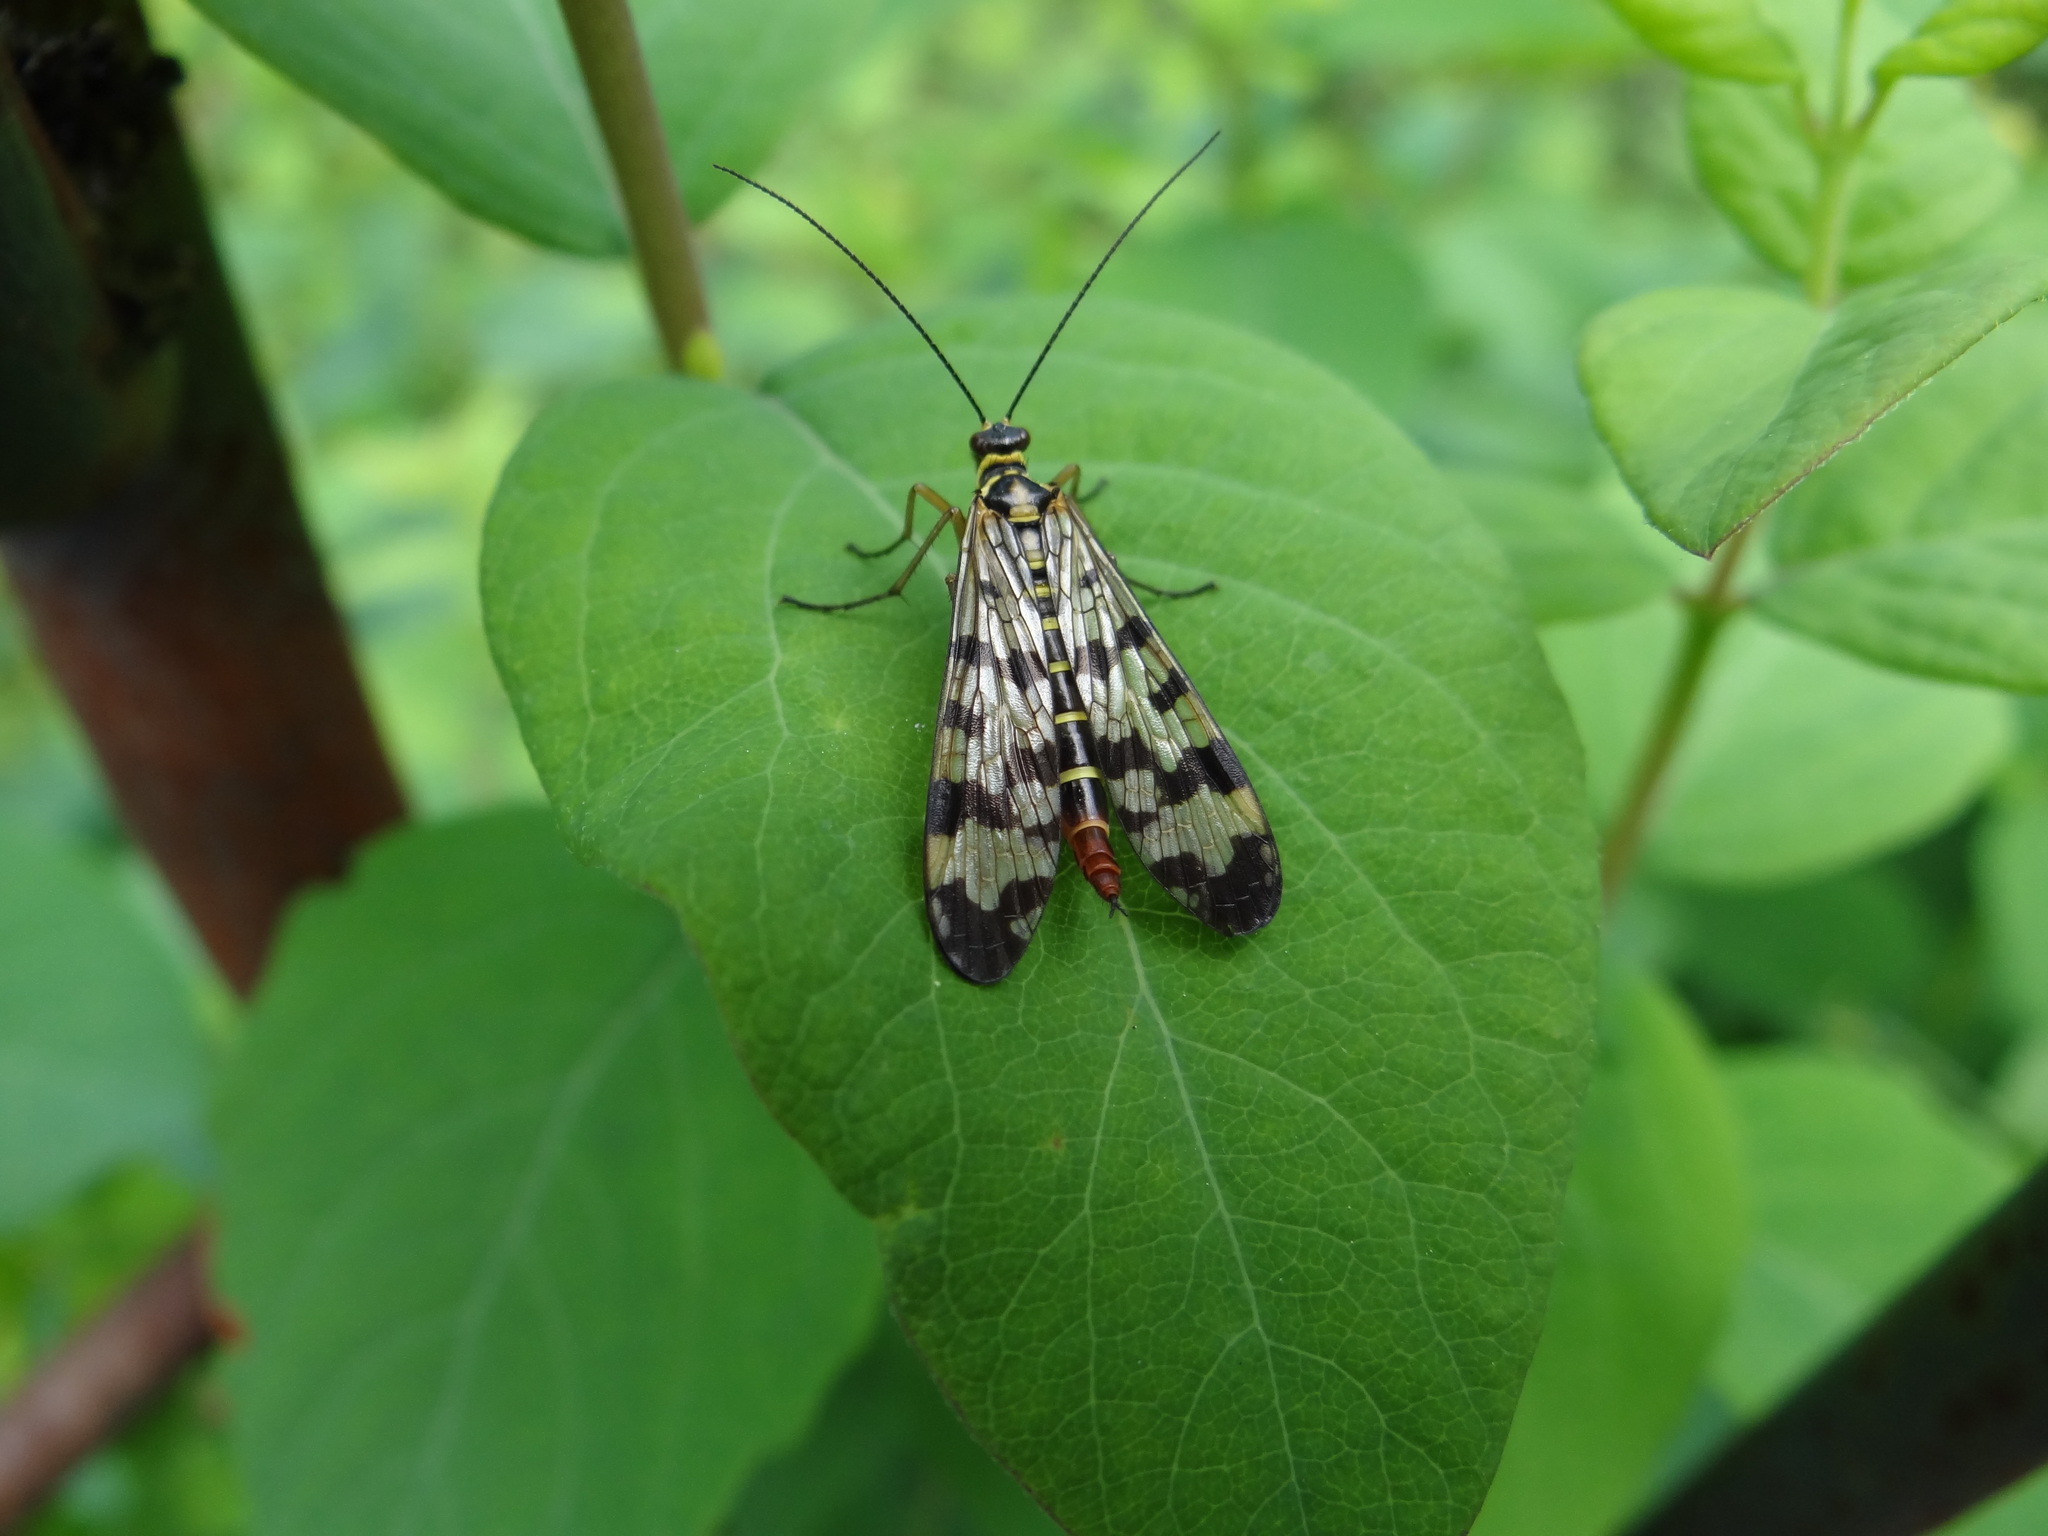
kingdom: Animalia
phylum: Arthropoda
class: Insecta
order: Mecoptera
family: Panorpidae
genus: Panorpa
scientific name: Panorpa communis
